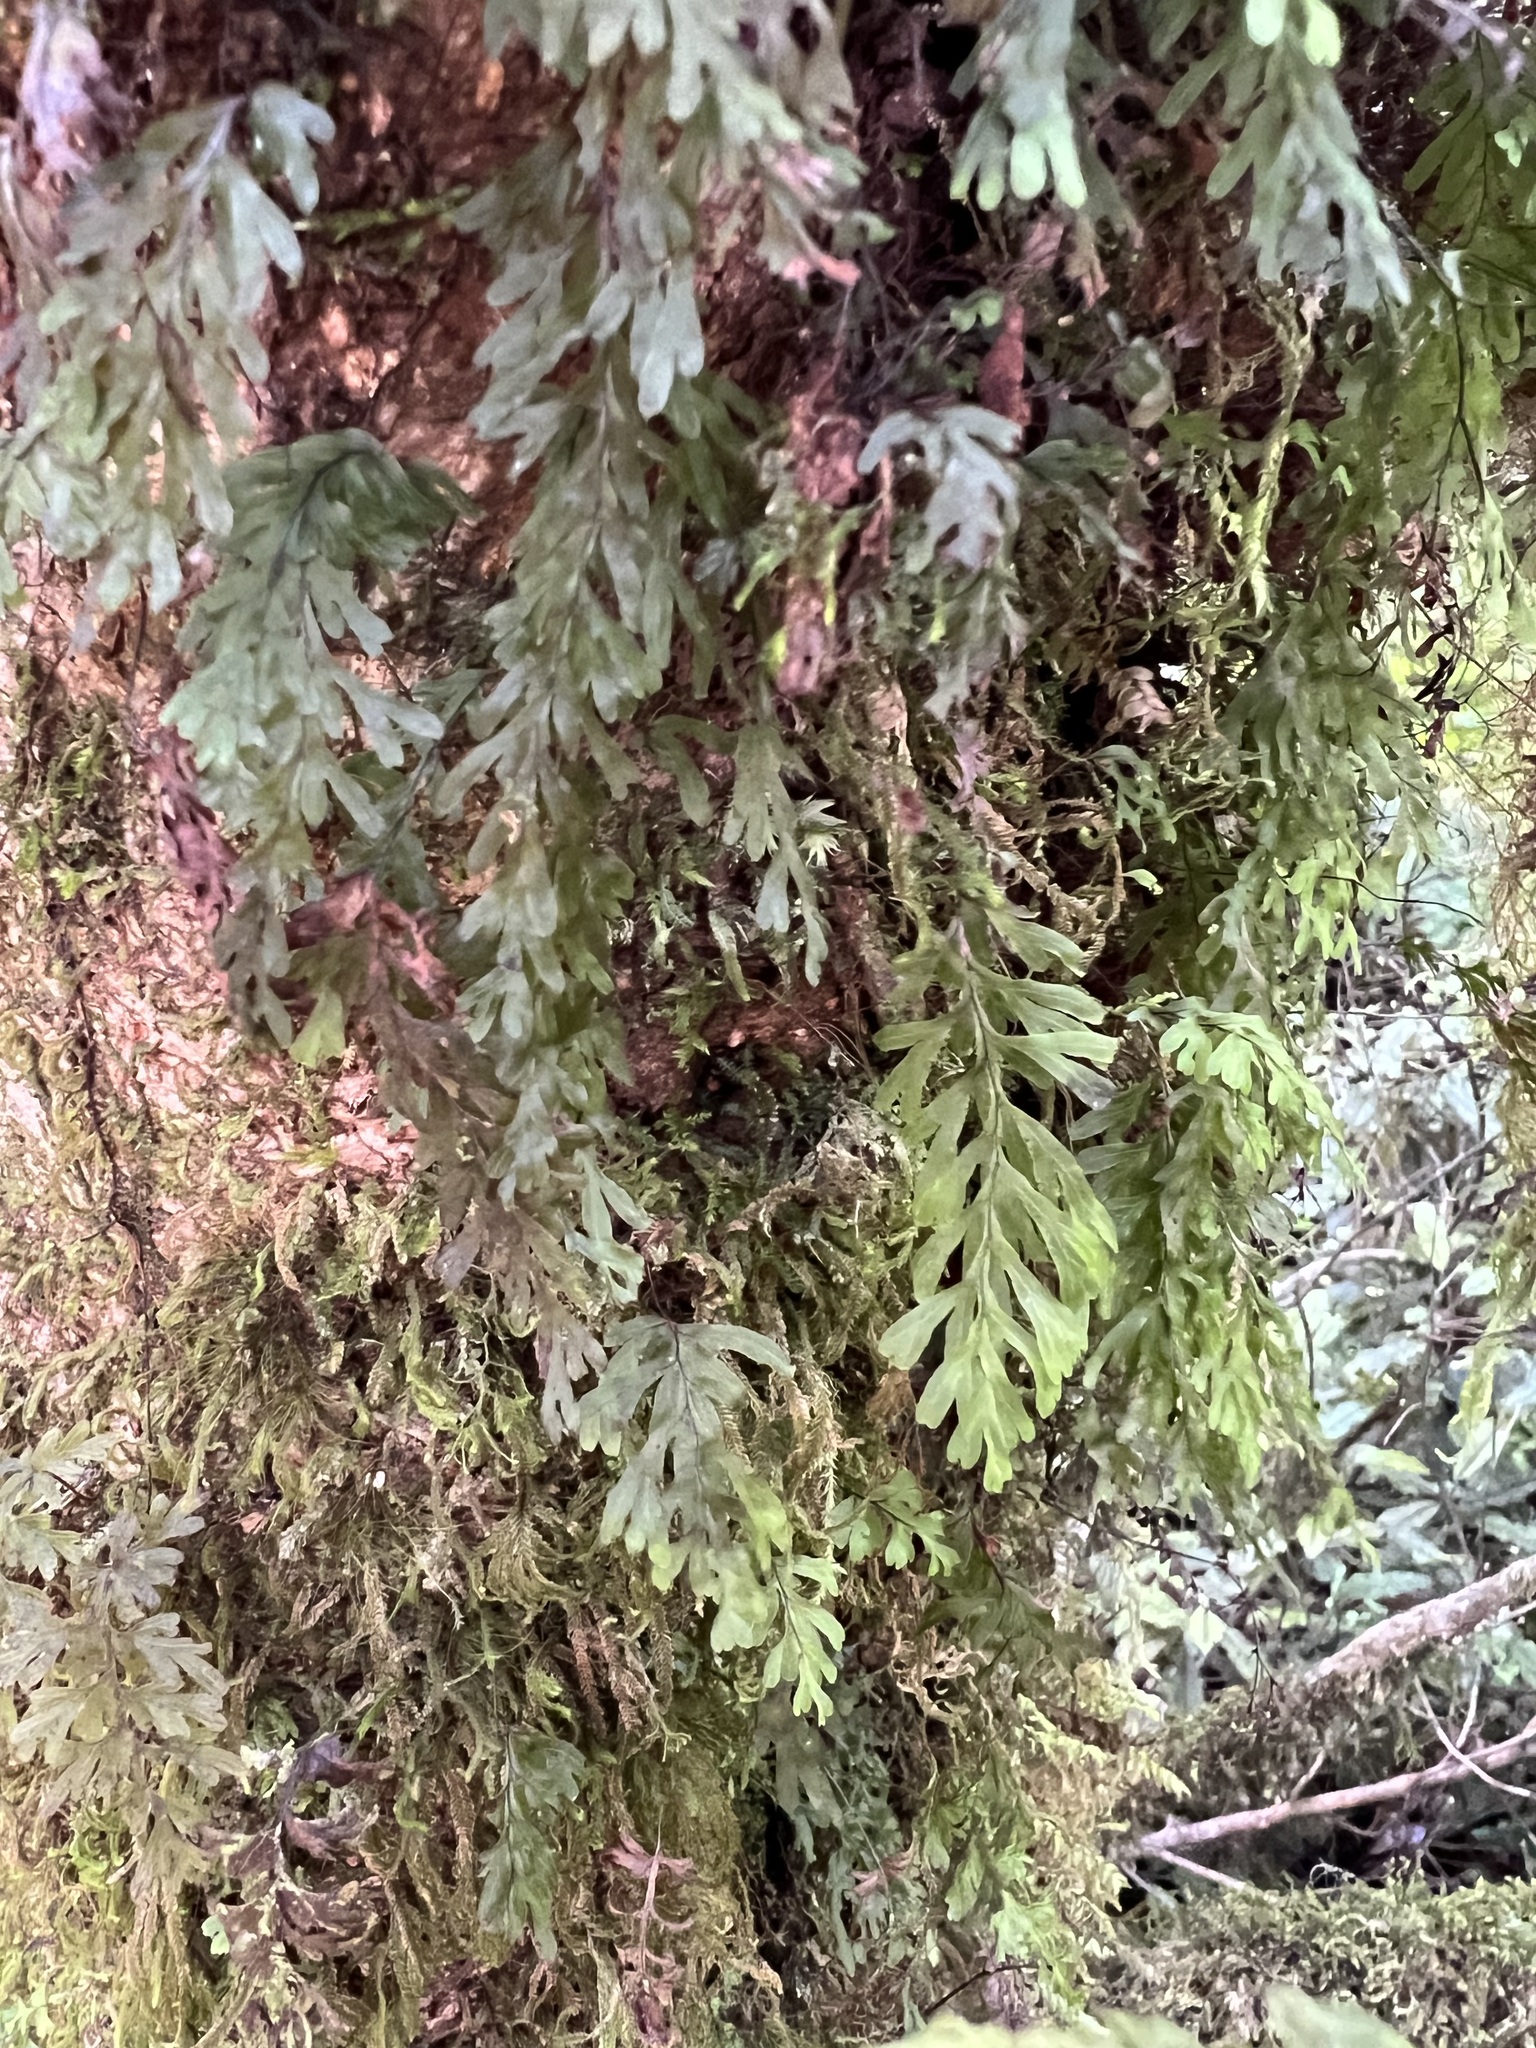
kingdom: Plantae
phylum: Tracheophyta
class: Polypodiopsida
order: Hymenophyllales
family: Hymenophyllaceae
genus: Hymenophyllum
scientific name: Hymenophyllum rarum
